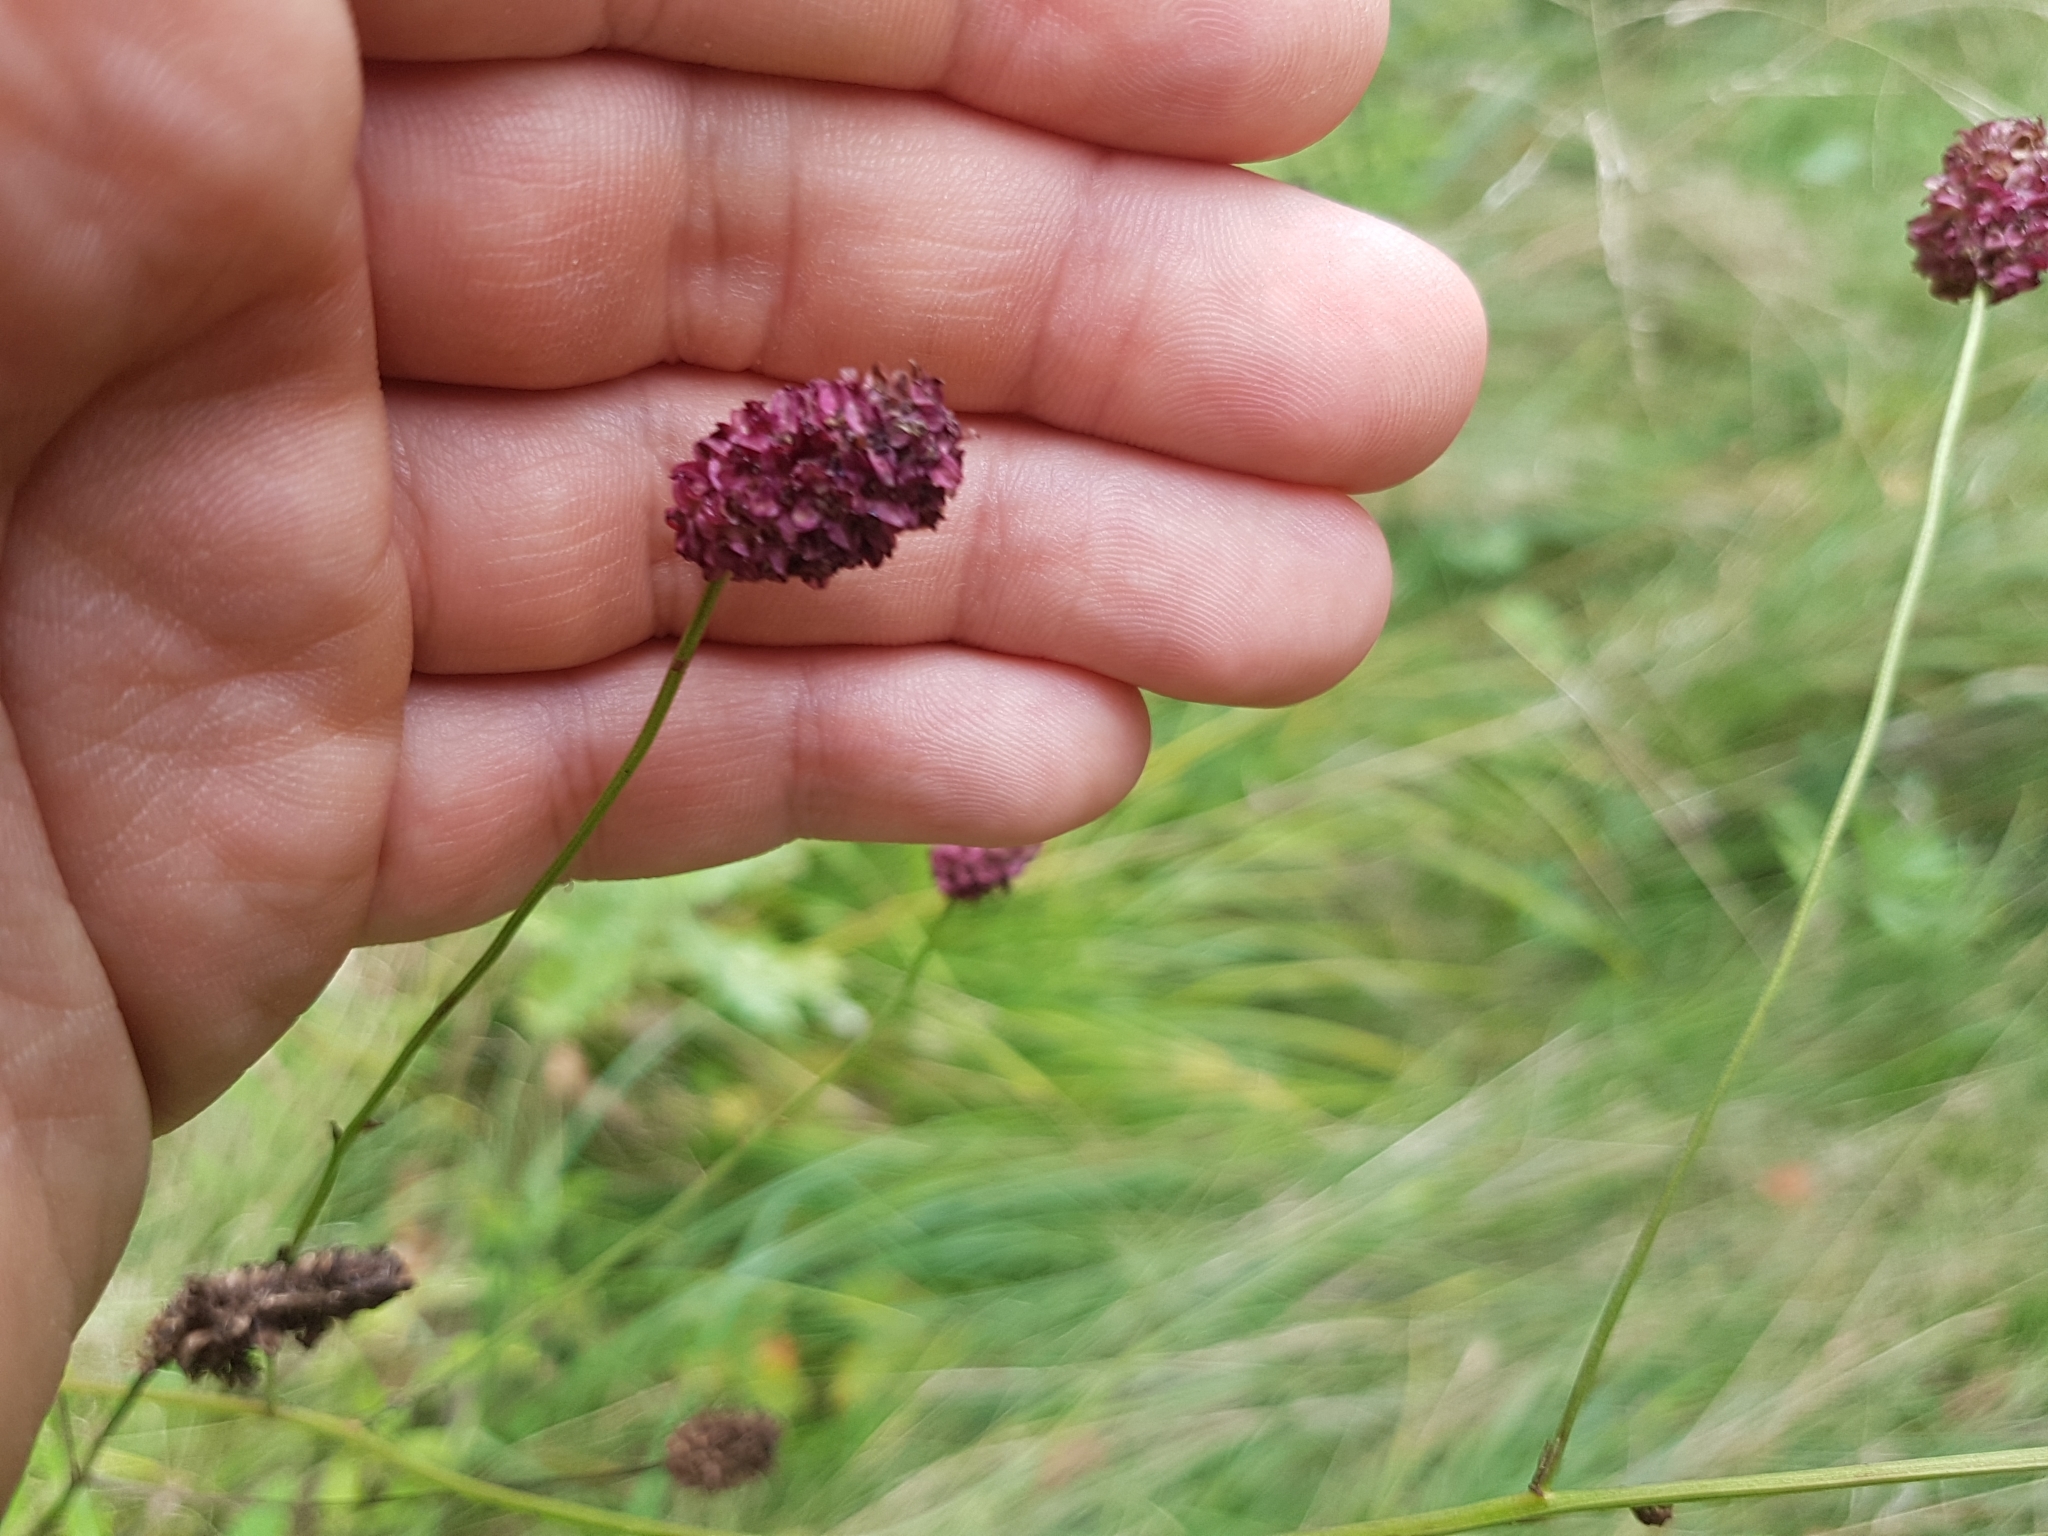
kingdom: Plantae
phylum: Tracheophyta
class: Magnoliopsida
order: Rosales
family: Rosaceae
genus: Sanguisorba
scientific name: Sanguisorba officinalis
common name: Great burnet
